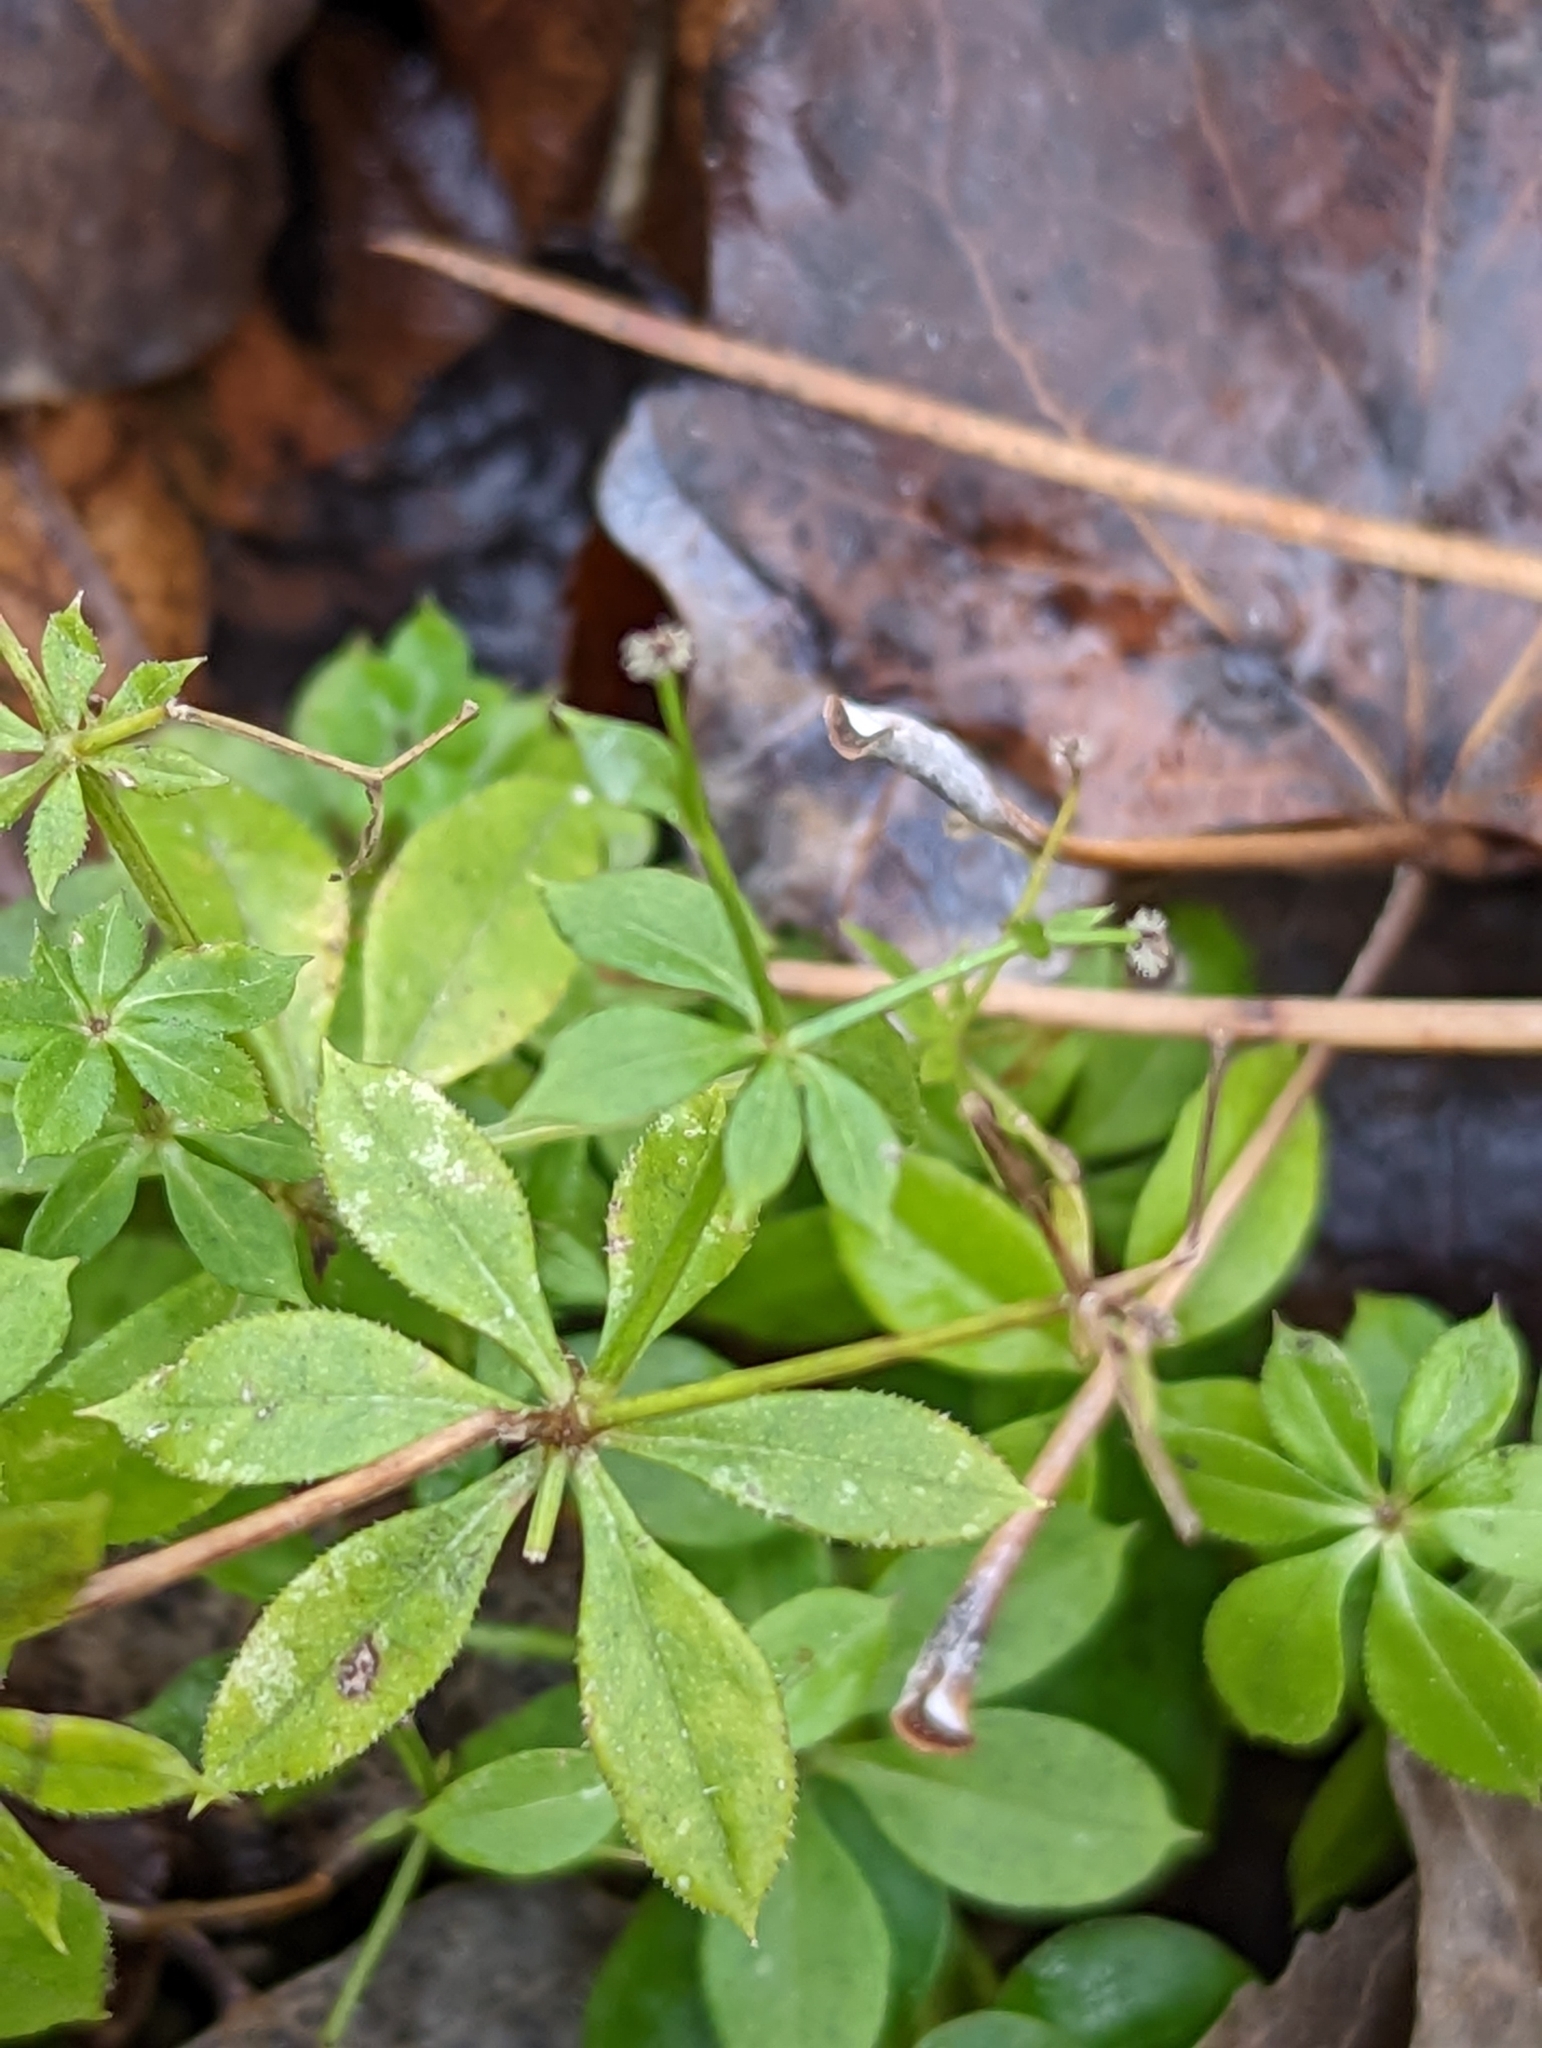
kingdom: Plantae
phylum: Tracheophyta
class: Magnoliopsida
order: Gentianales
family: Rubiaceae
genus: Galium
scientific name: Galium triflorum
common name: Fragrant bedstraw
